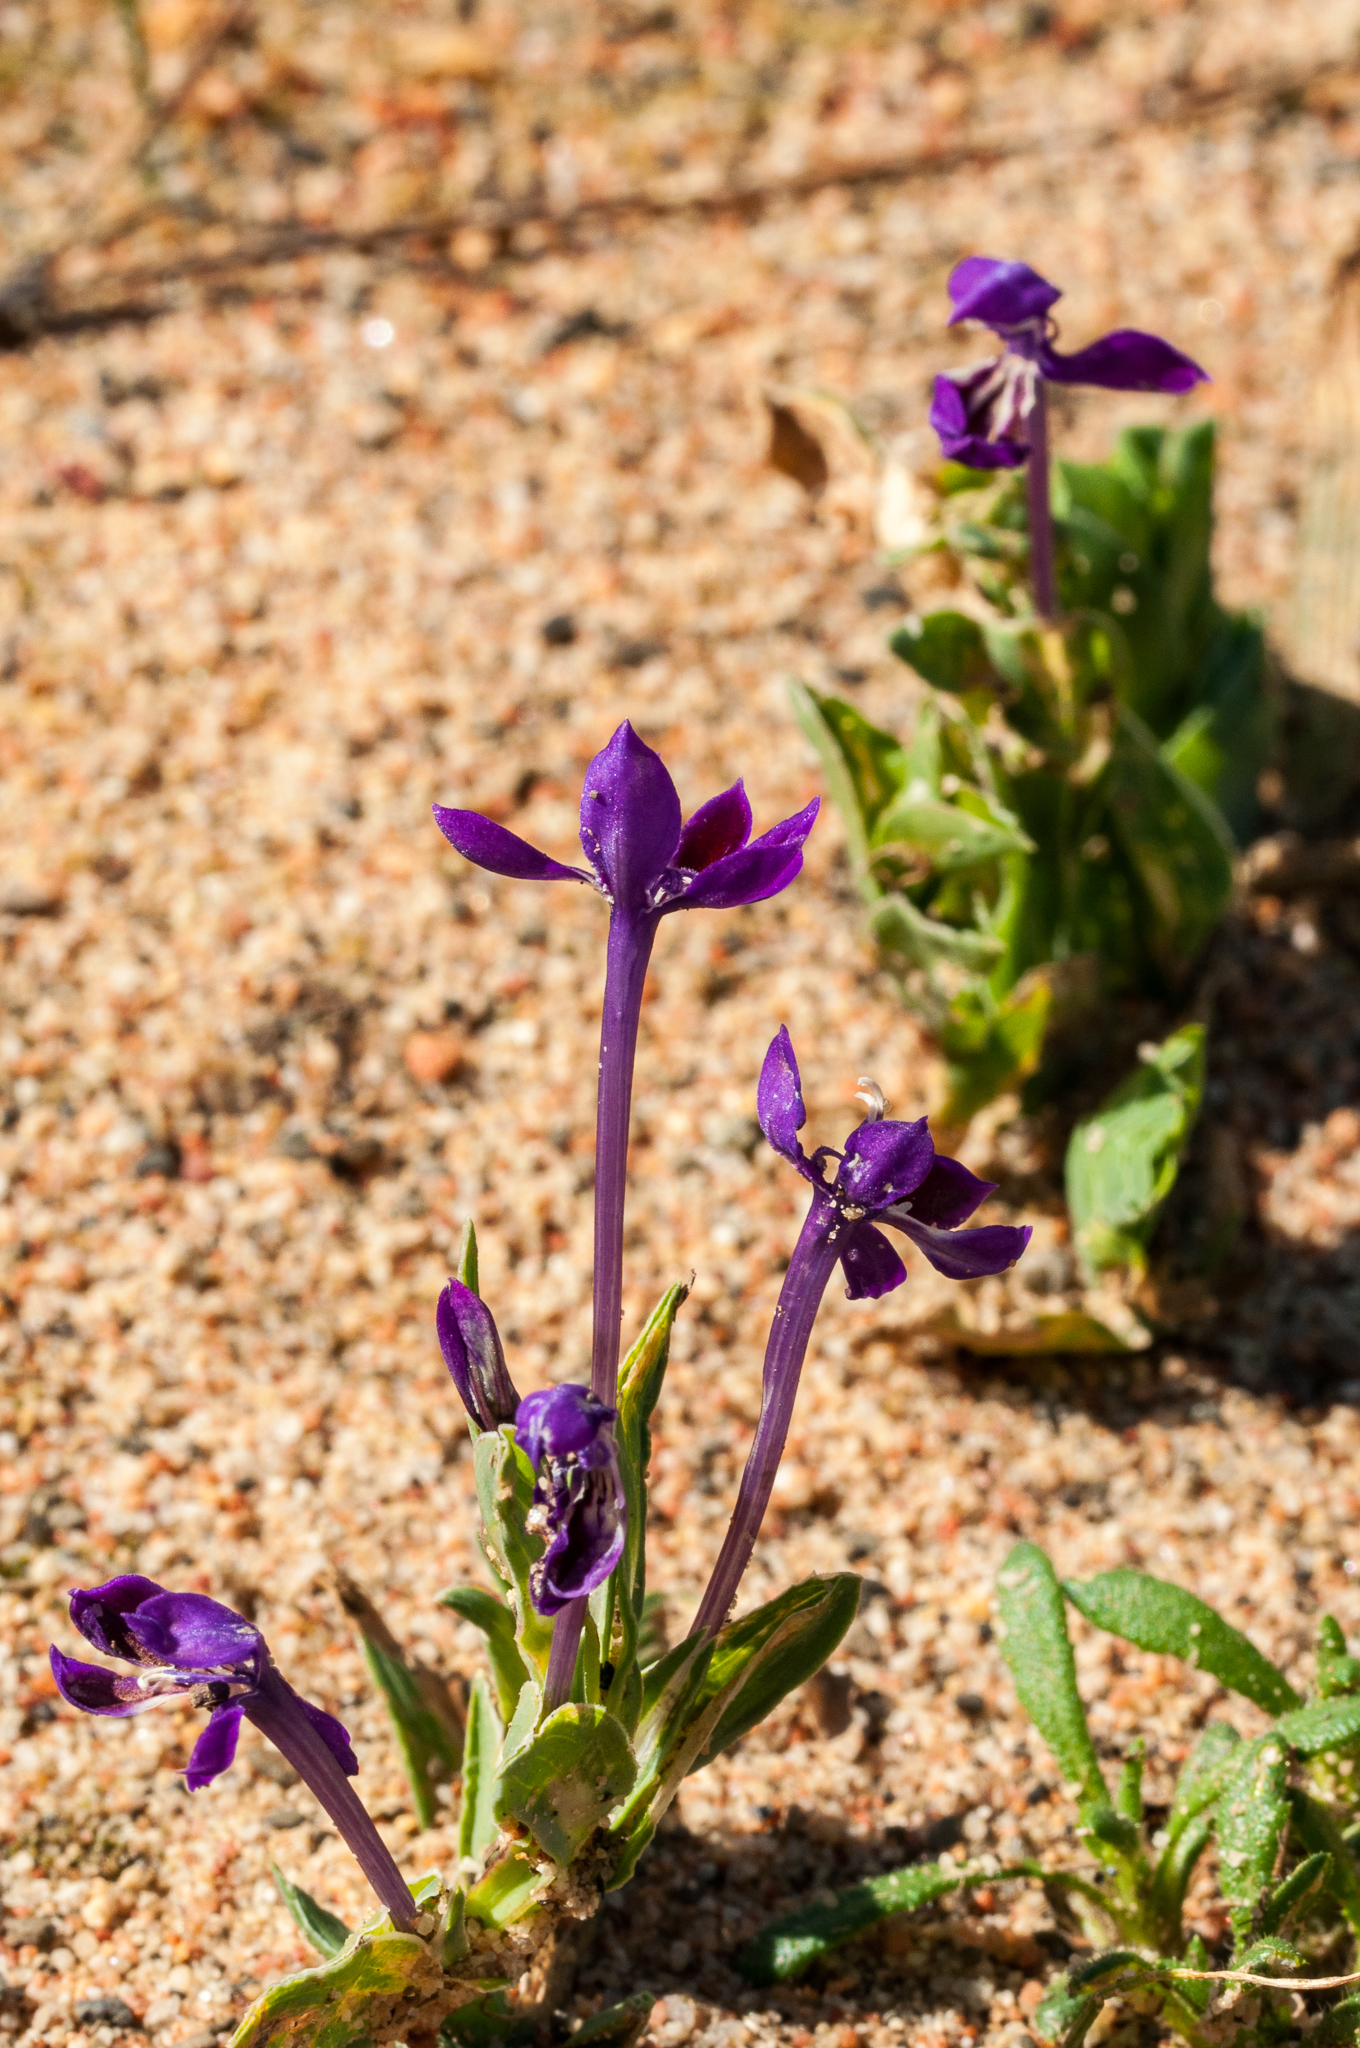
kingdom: Plantae
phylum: Tracheophyta
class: Liliopsida
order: Asparagales
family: Iridaceae
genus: Lapeirousia
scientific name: Lapeirousia jacquinii
